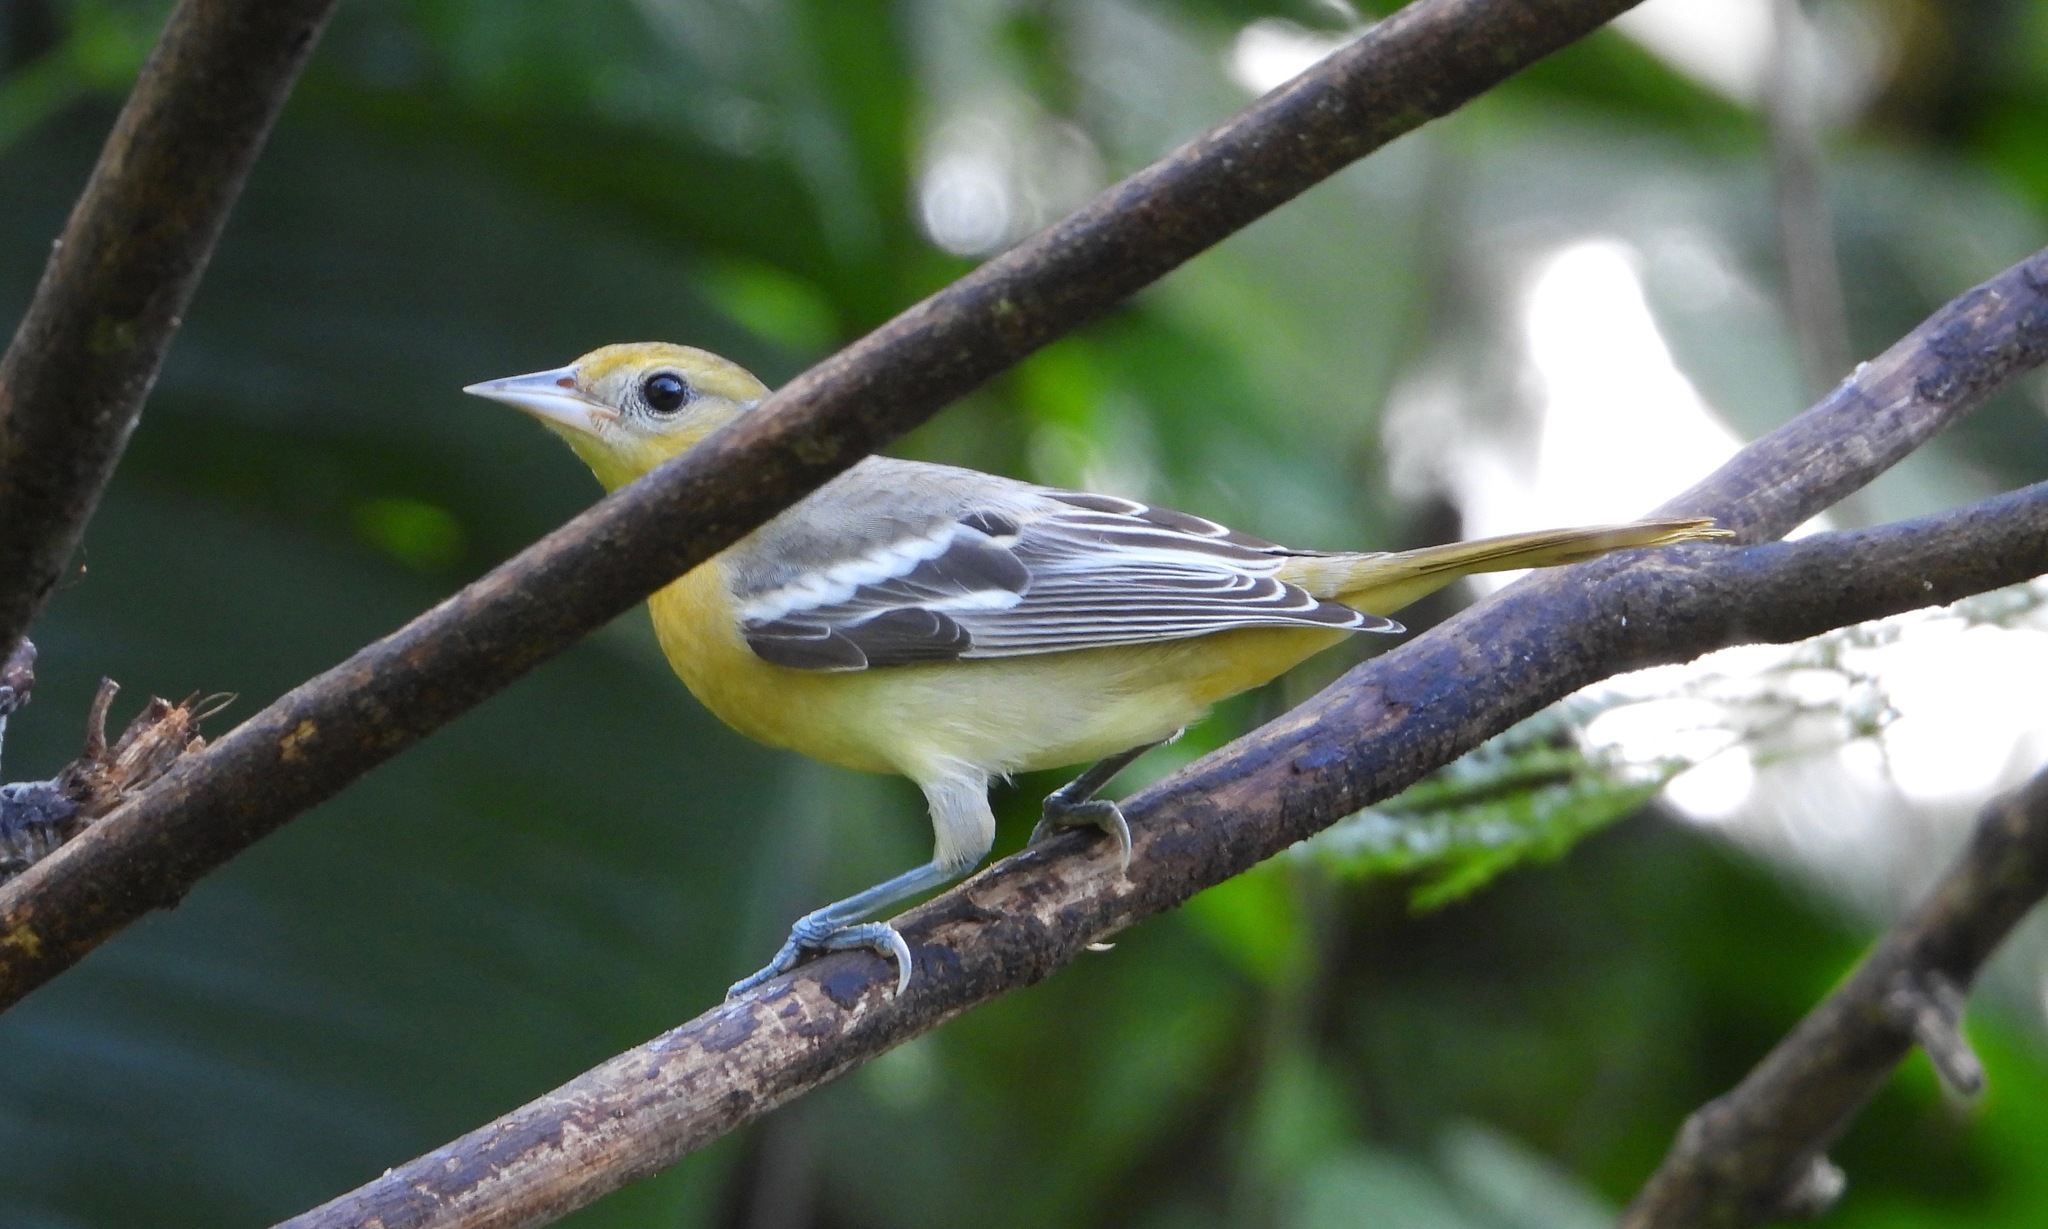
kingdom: Animalia
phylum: Chordata
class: Aves
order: Passeriformes
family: Icteridae
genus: Icterus
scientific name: Icterus galbula
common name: Baltimore oriole
